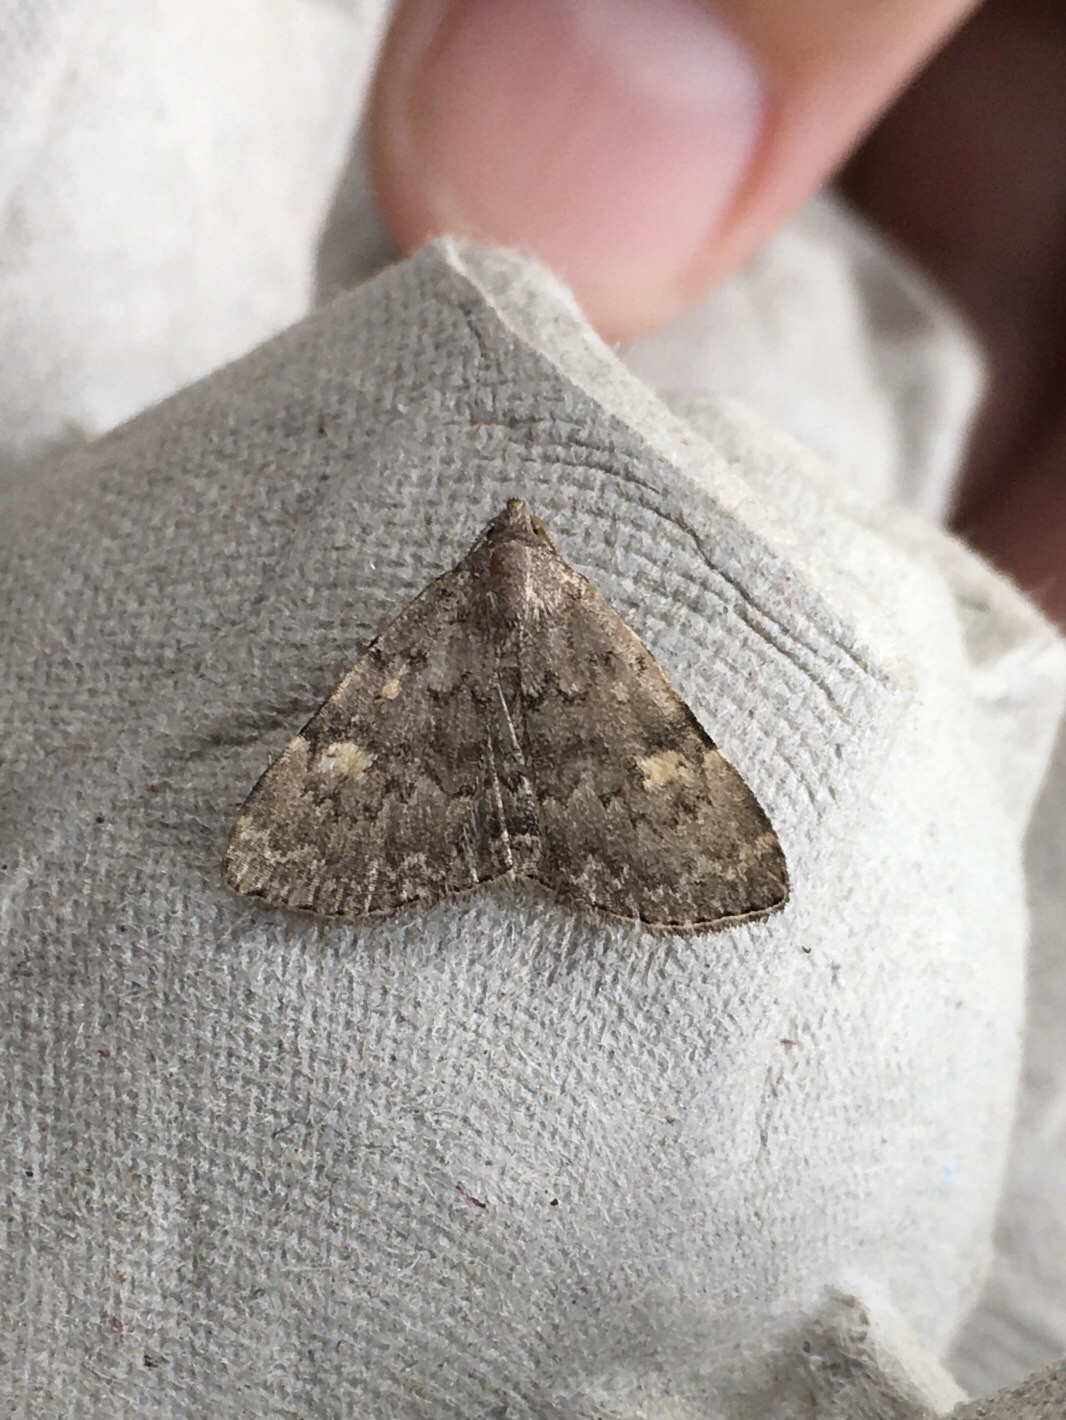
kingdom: Animalia
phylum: Arthropoda
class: Insecta
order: Lepidoptera
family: Erebidae
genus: Idia
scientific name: Idia aemula
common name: Common idia moth
